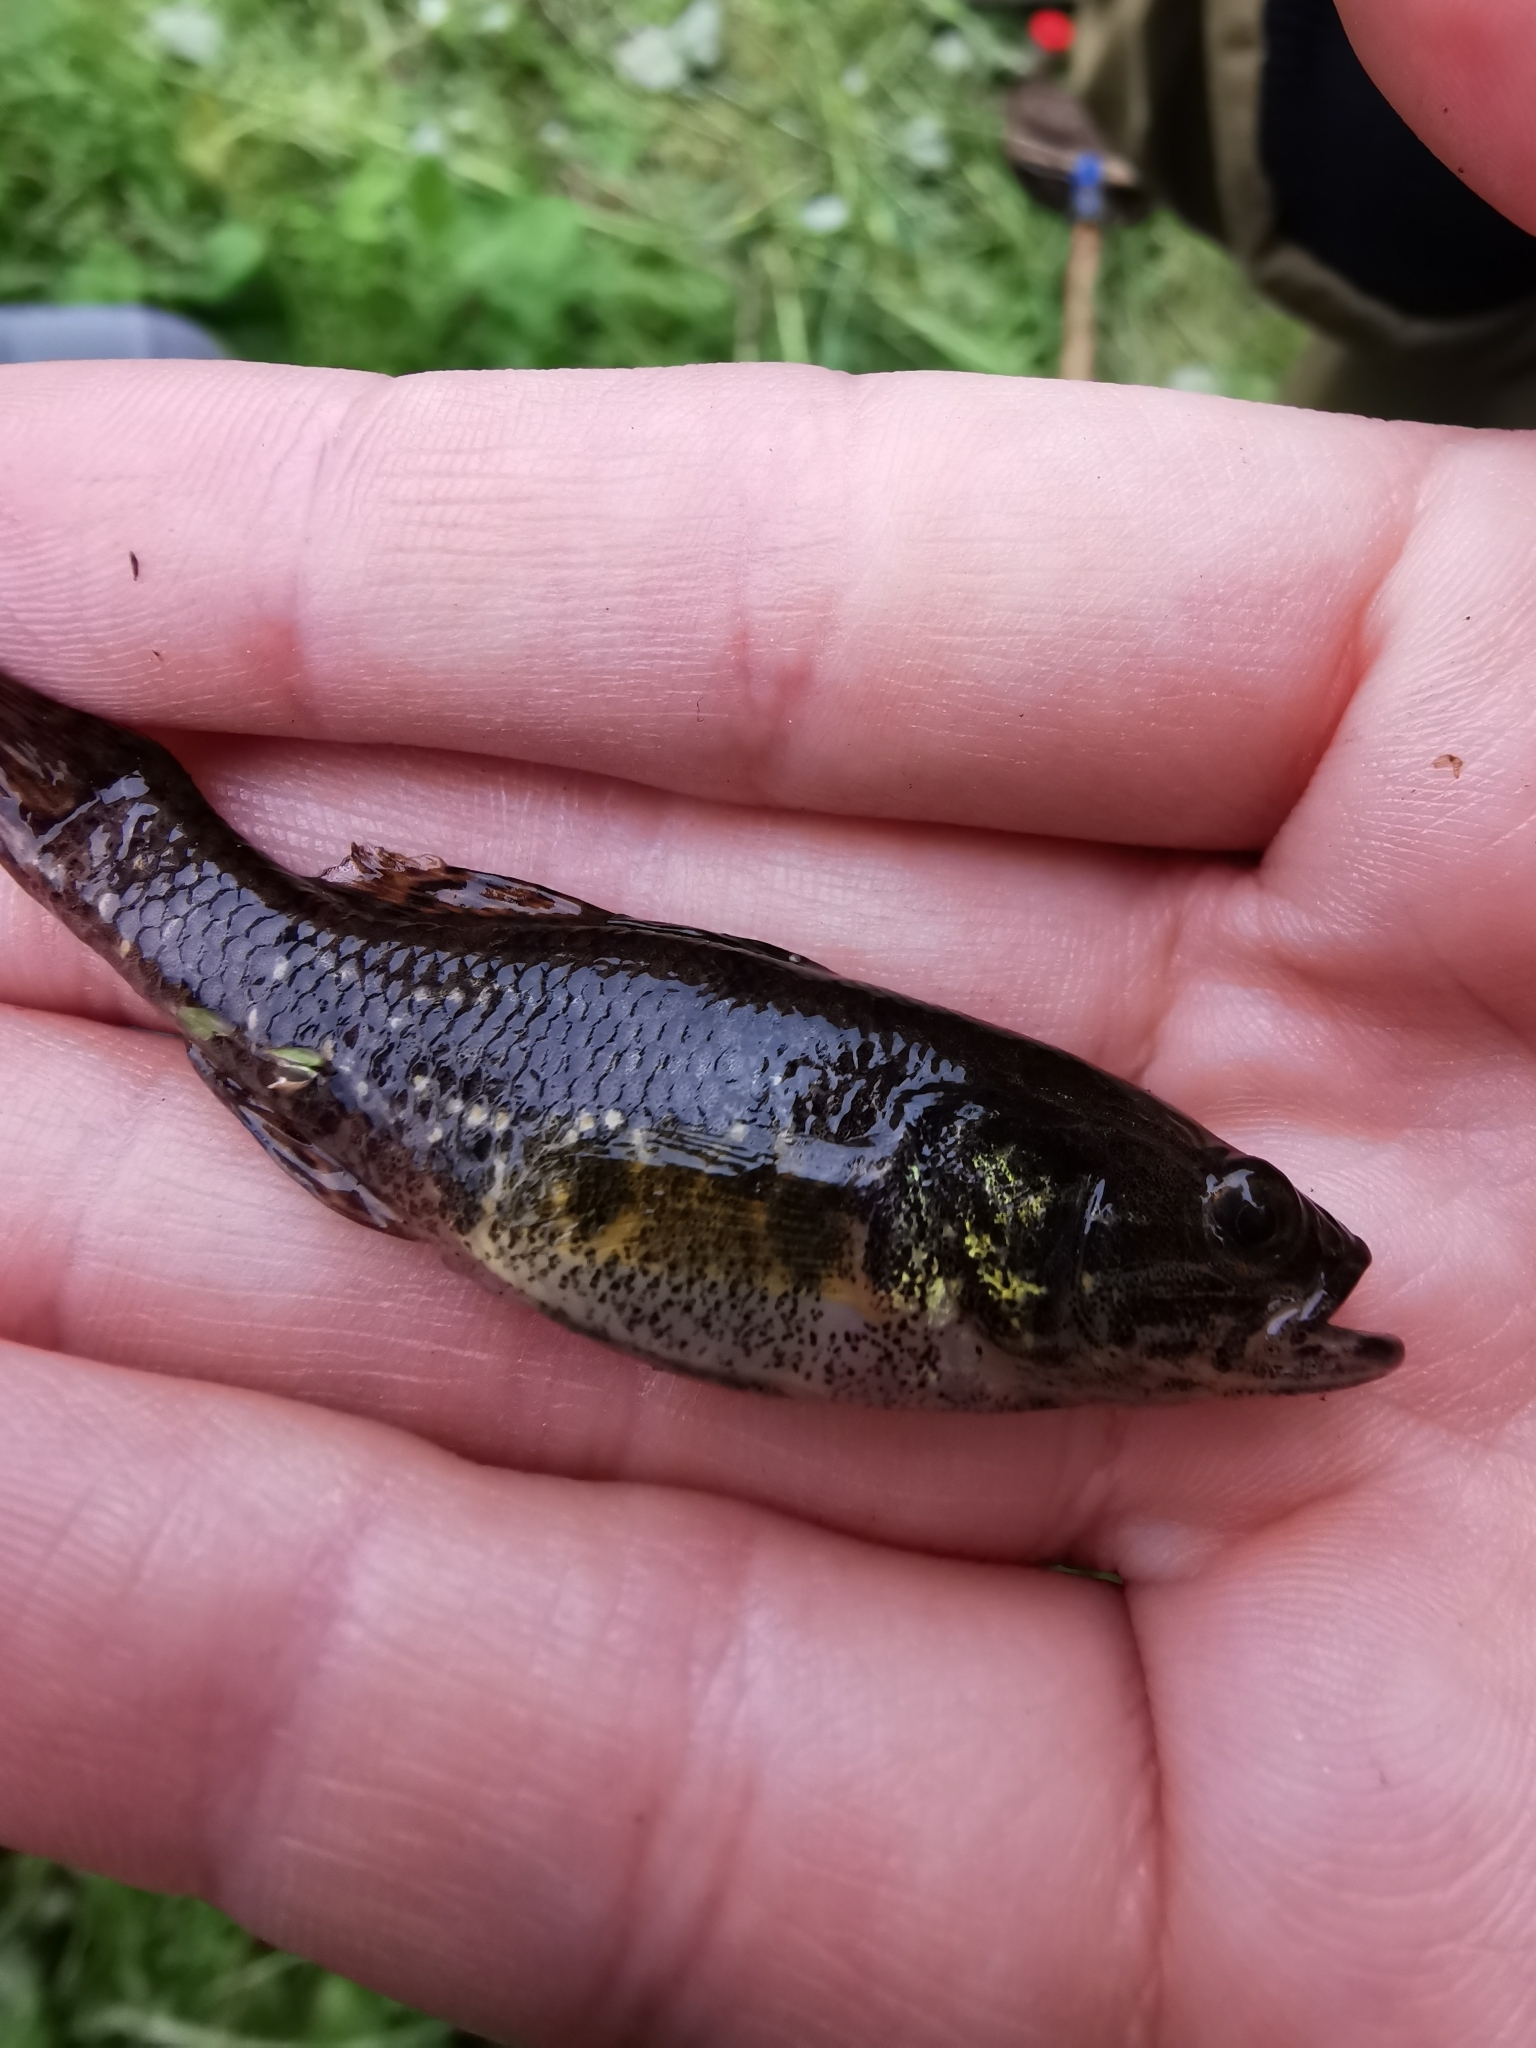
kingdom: Animalia
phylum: Chordata
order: Perciformes
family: Odontobutidae
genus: Perccottus
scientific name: Perccottus glenii
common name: Amur sleeper
